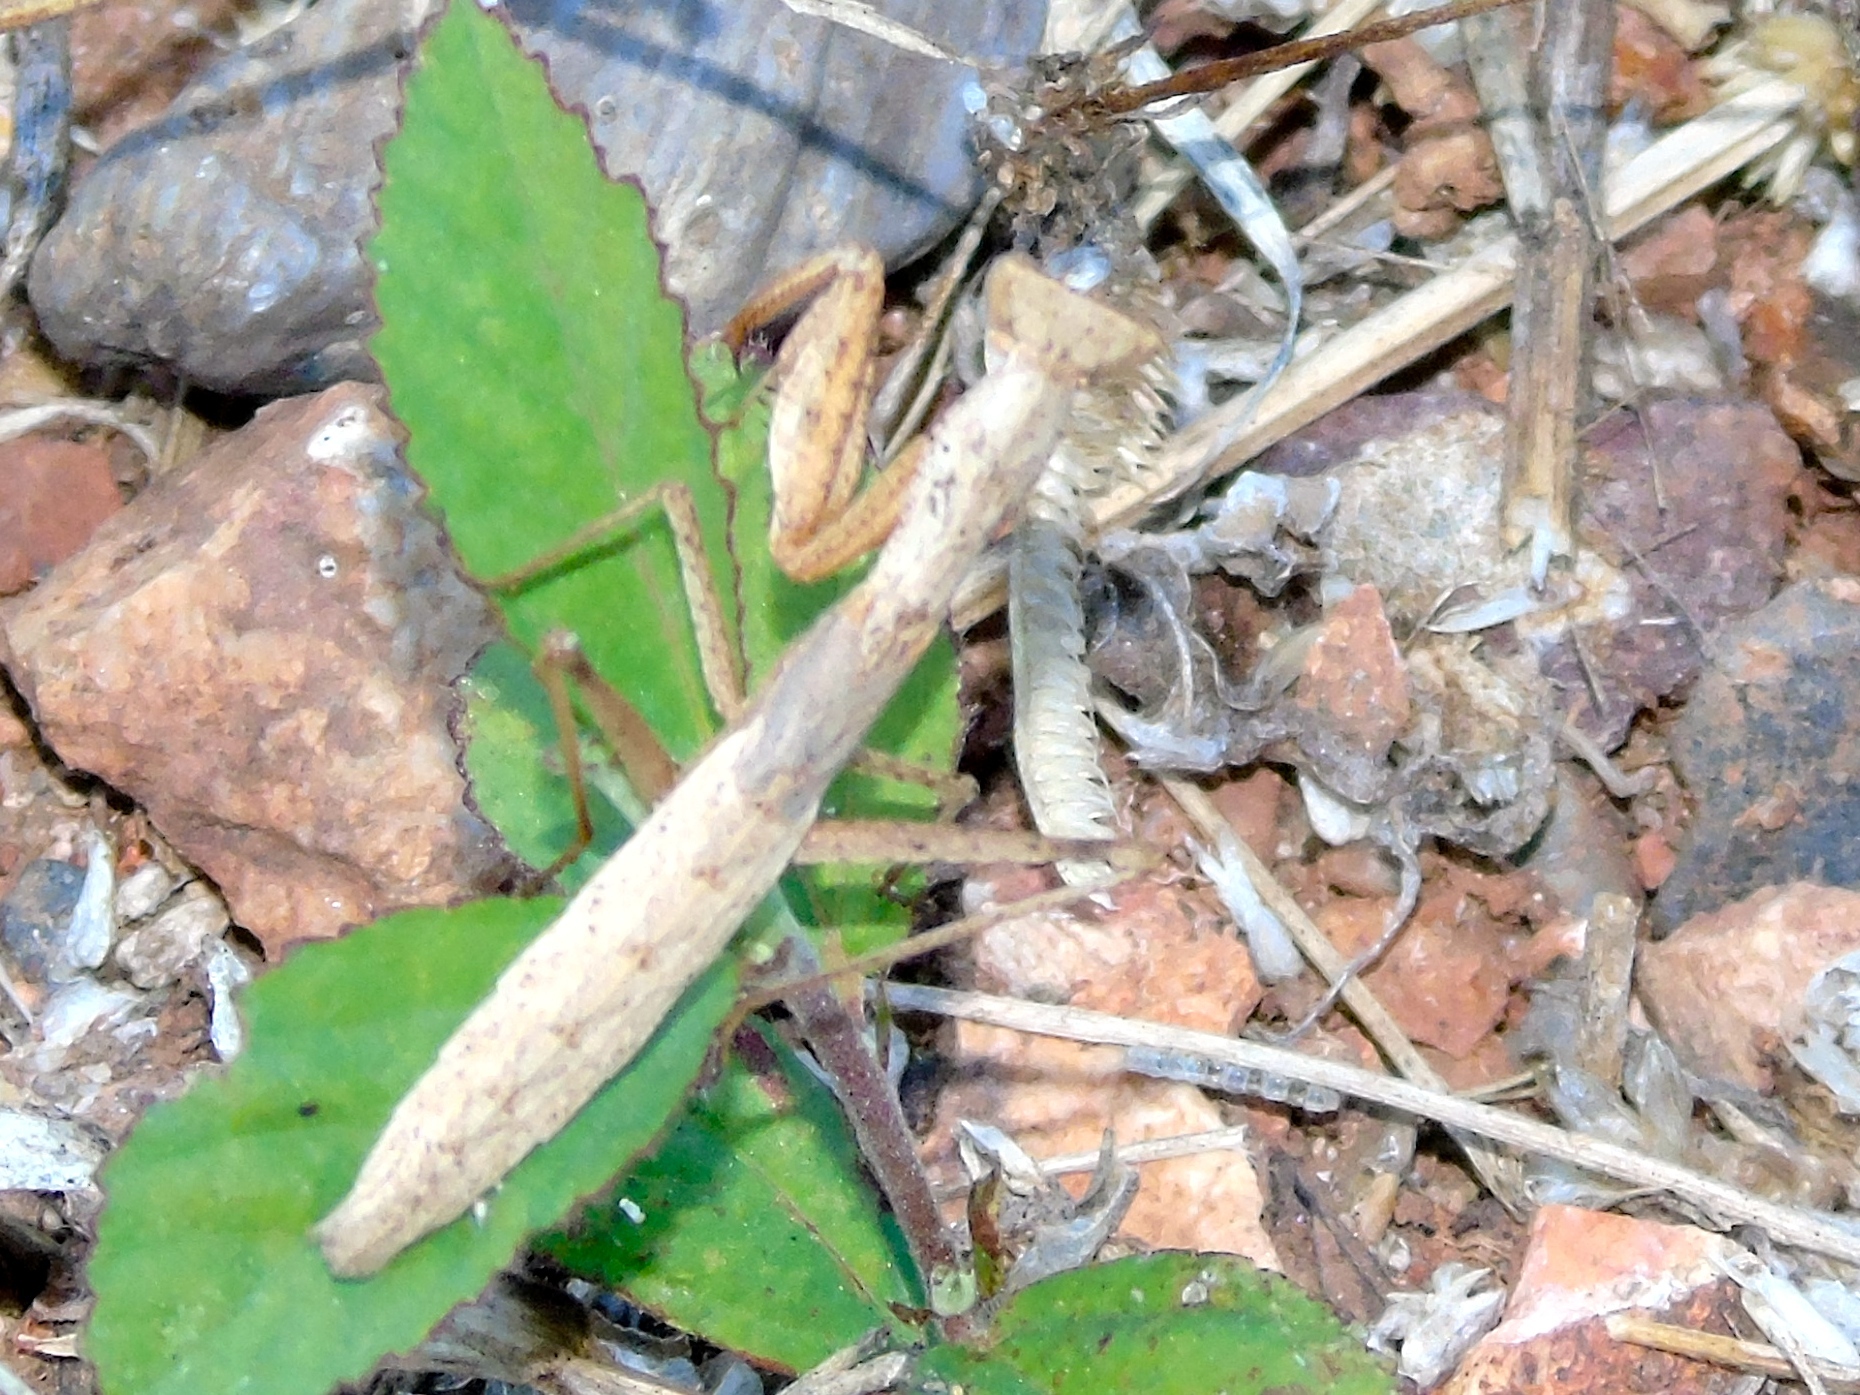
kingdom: Animalia
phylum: Arthropoda
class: Insecta
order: Mantodea
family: Amelidae
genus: Yersinia
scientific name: Yersinia mexicana
